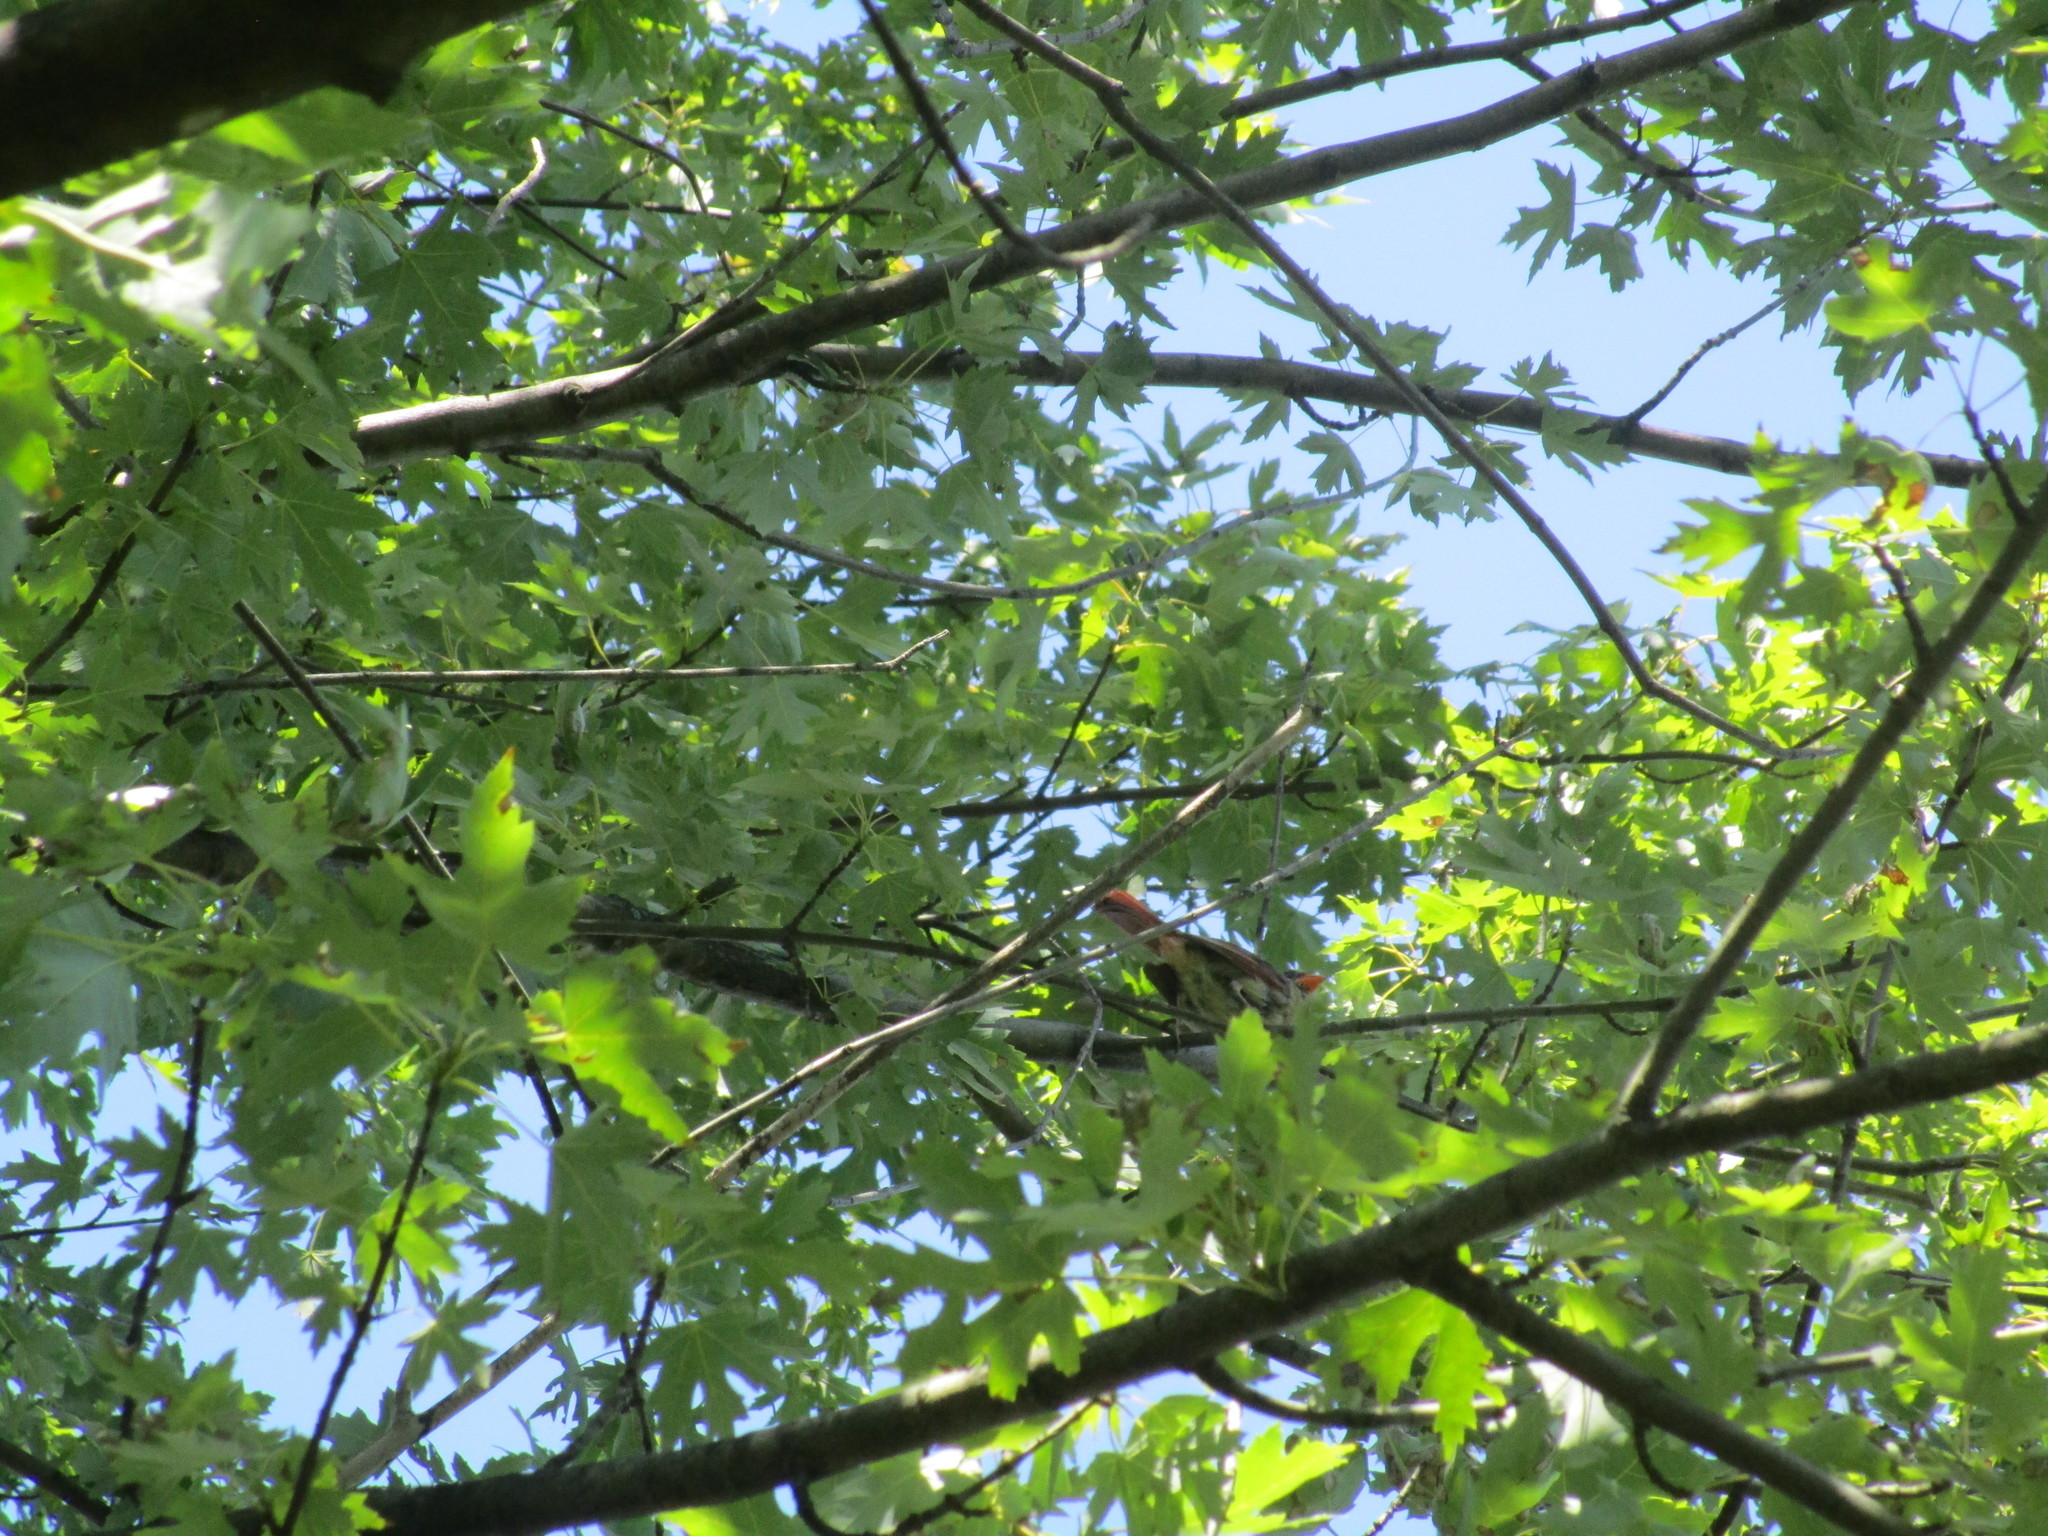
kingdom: Animalia
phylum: Chordata
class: Aves
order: Passeriformes
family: Cardinalidae
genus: Cardinalis
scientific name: Cardinalis cardinalis
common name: Northern cardinal
